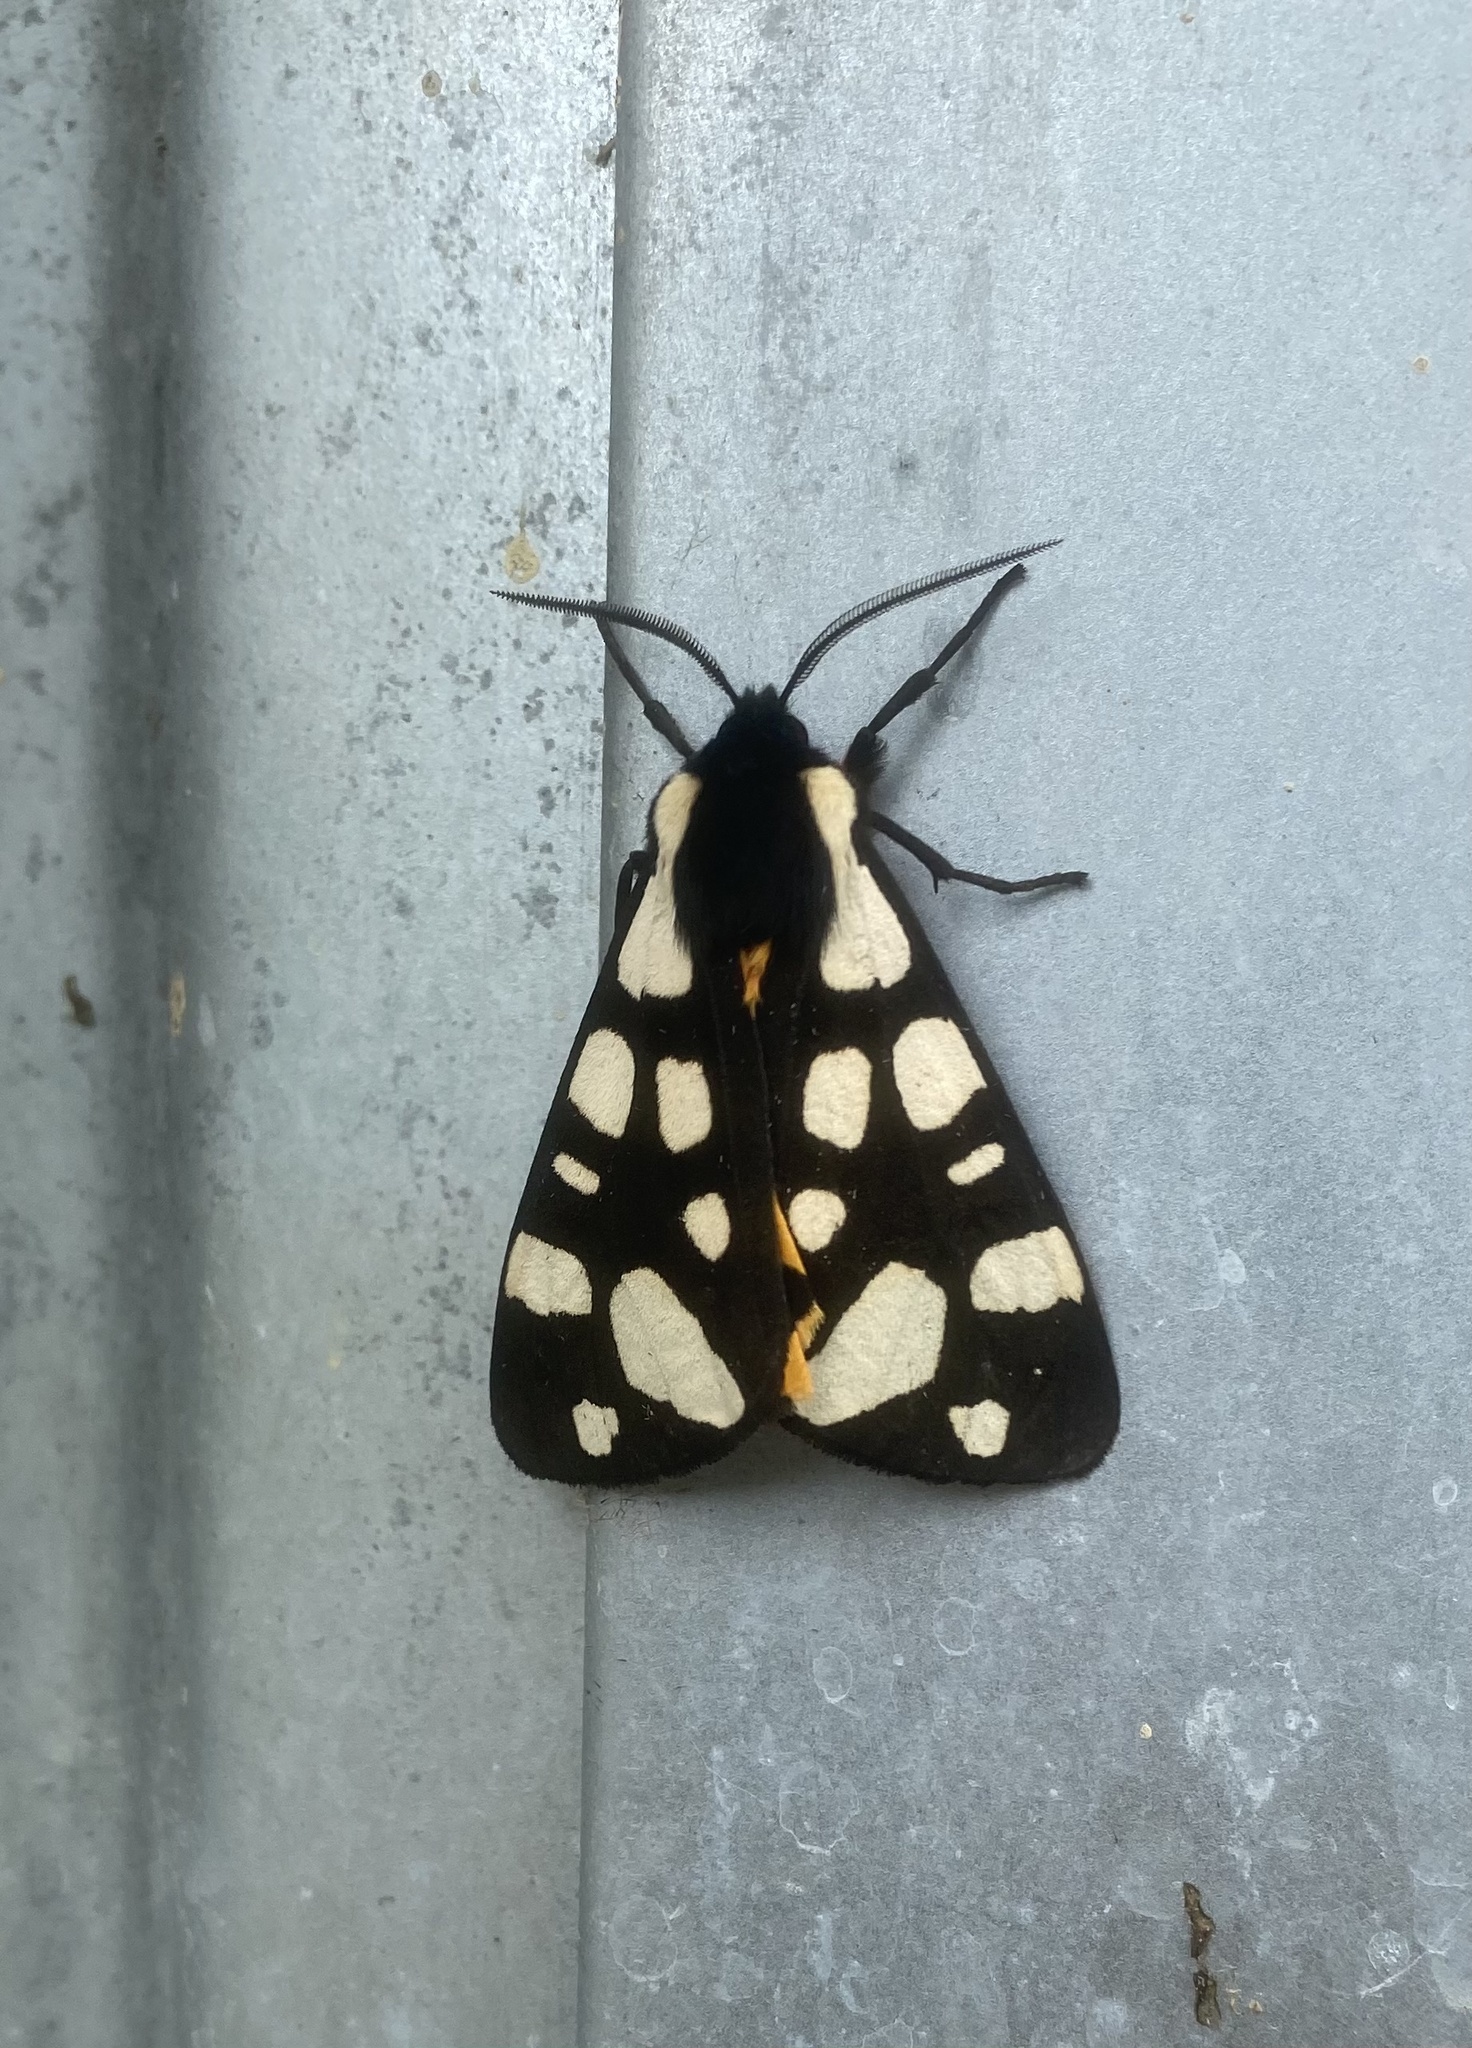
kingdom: Animalia
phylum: Arthropoda
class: Insecta
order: Lepidoptera
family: Erebidae
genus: Epicallia
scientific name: Epicallia villica
